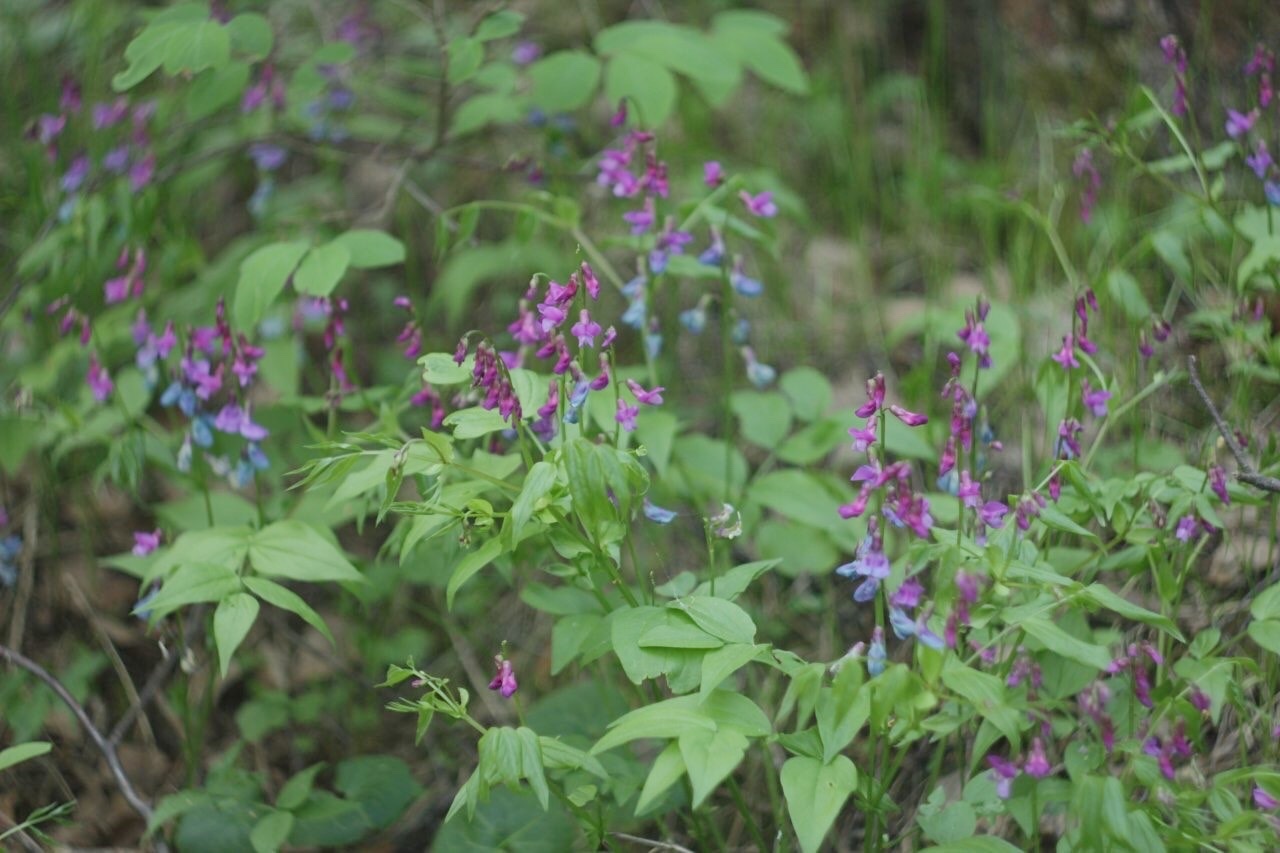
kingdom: Plantae
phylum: Tracheophyta
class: Magnoliopsida
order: Fabales
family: Fabaceae
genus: Lathyrus
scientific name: Lathyrus vernus
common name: Spring pea
